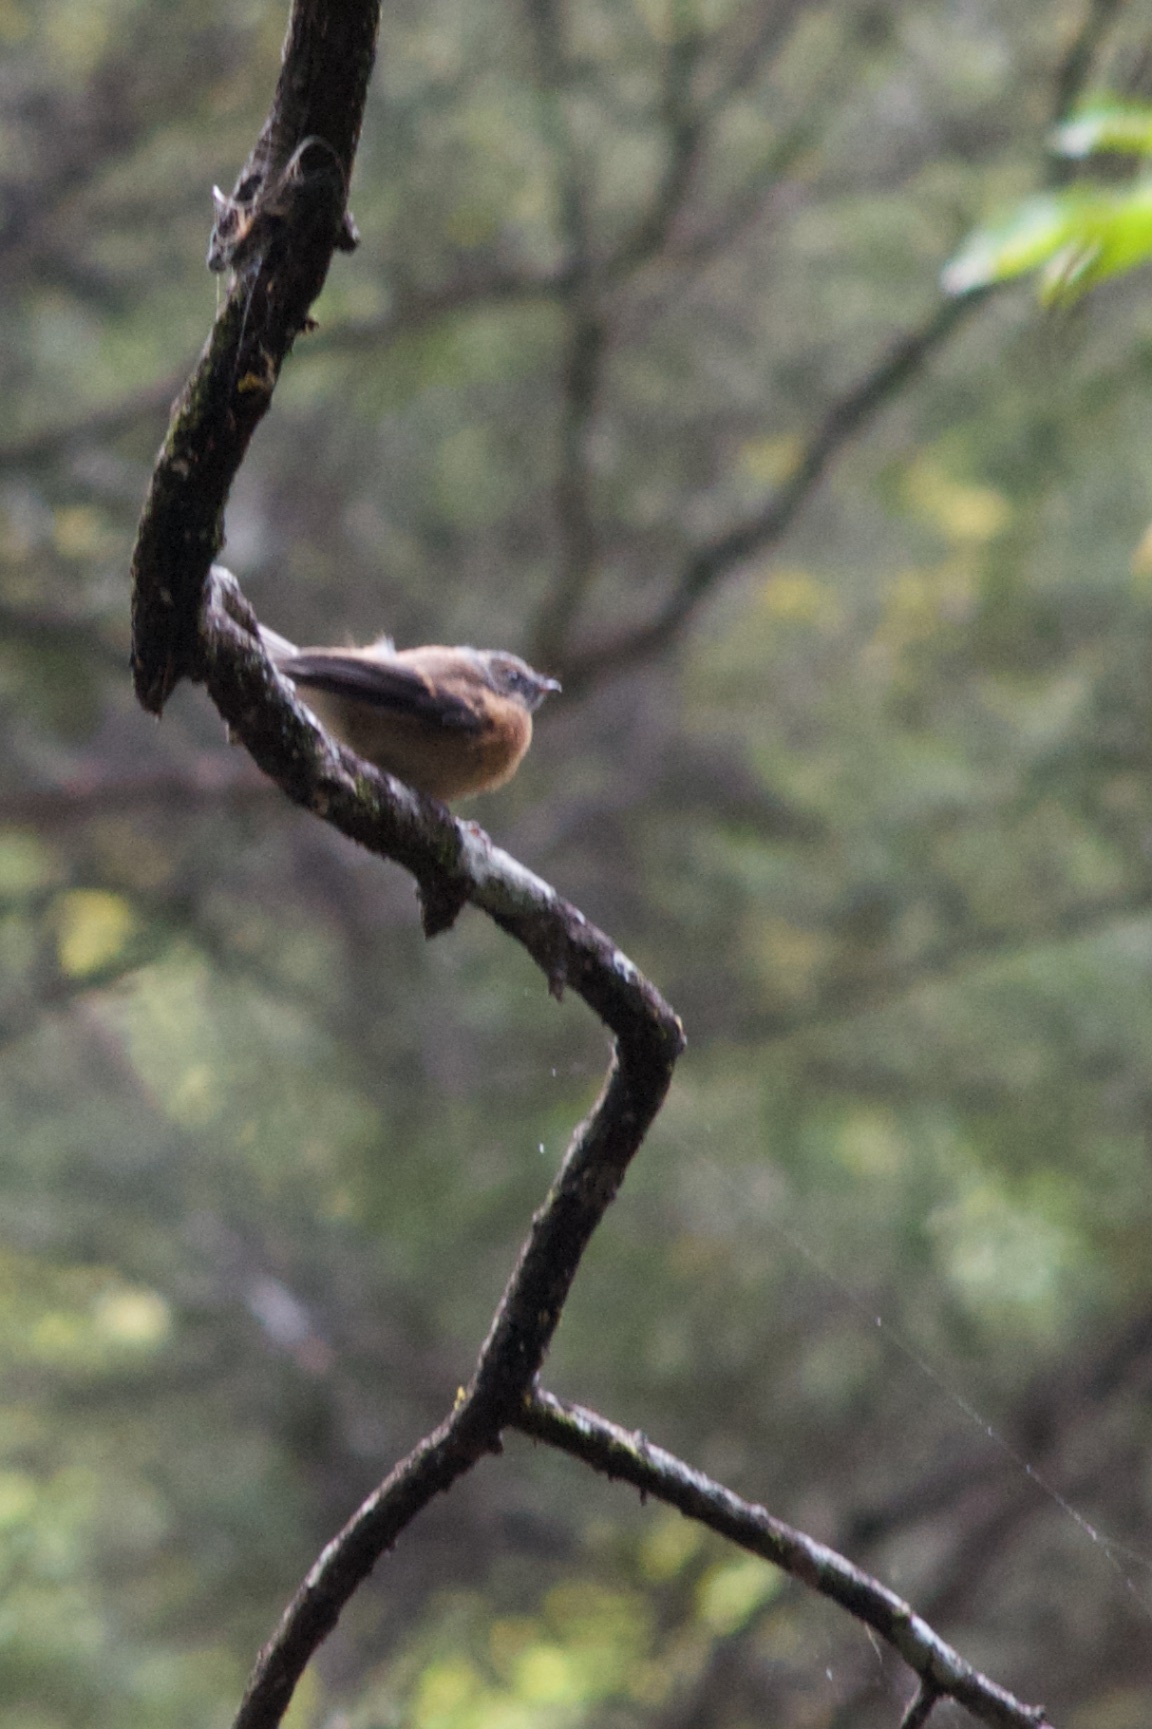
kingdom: Animalia
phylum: Chordata
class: Aves
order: Passeriformes
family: Rhipiduridae
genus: Rhipidura
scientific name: Rhipidura fuliginosa
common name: New zealand fantail
